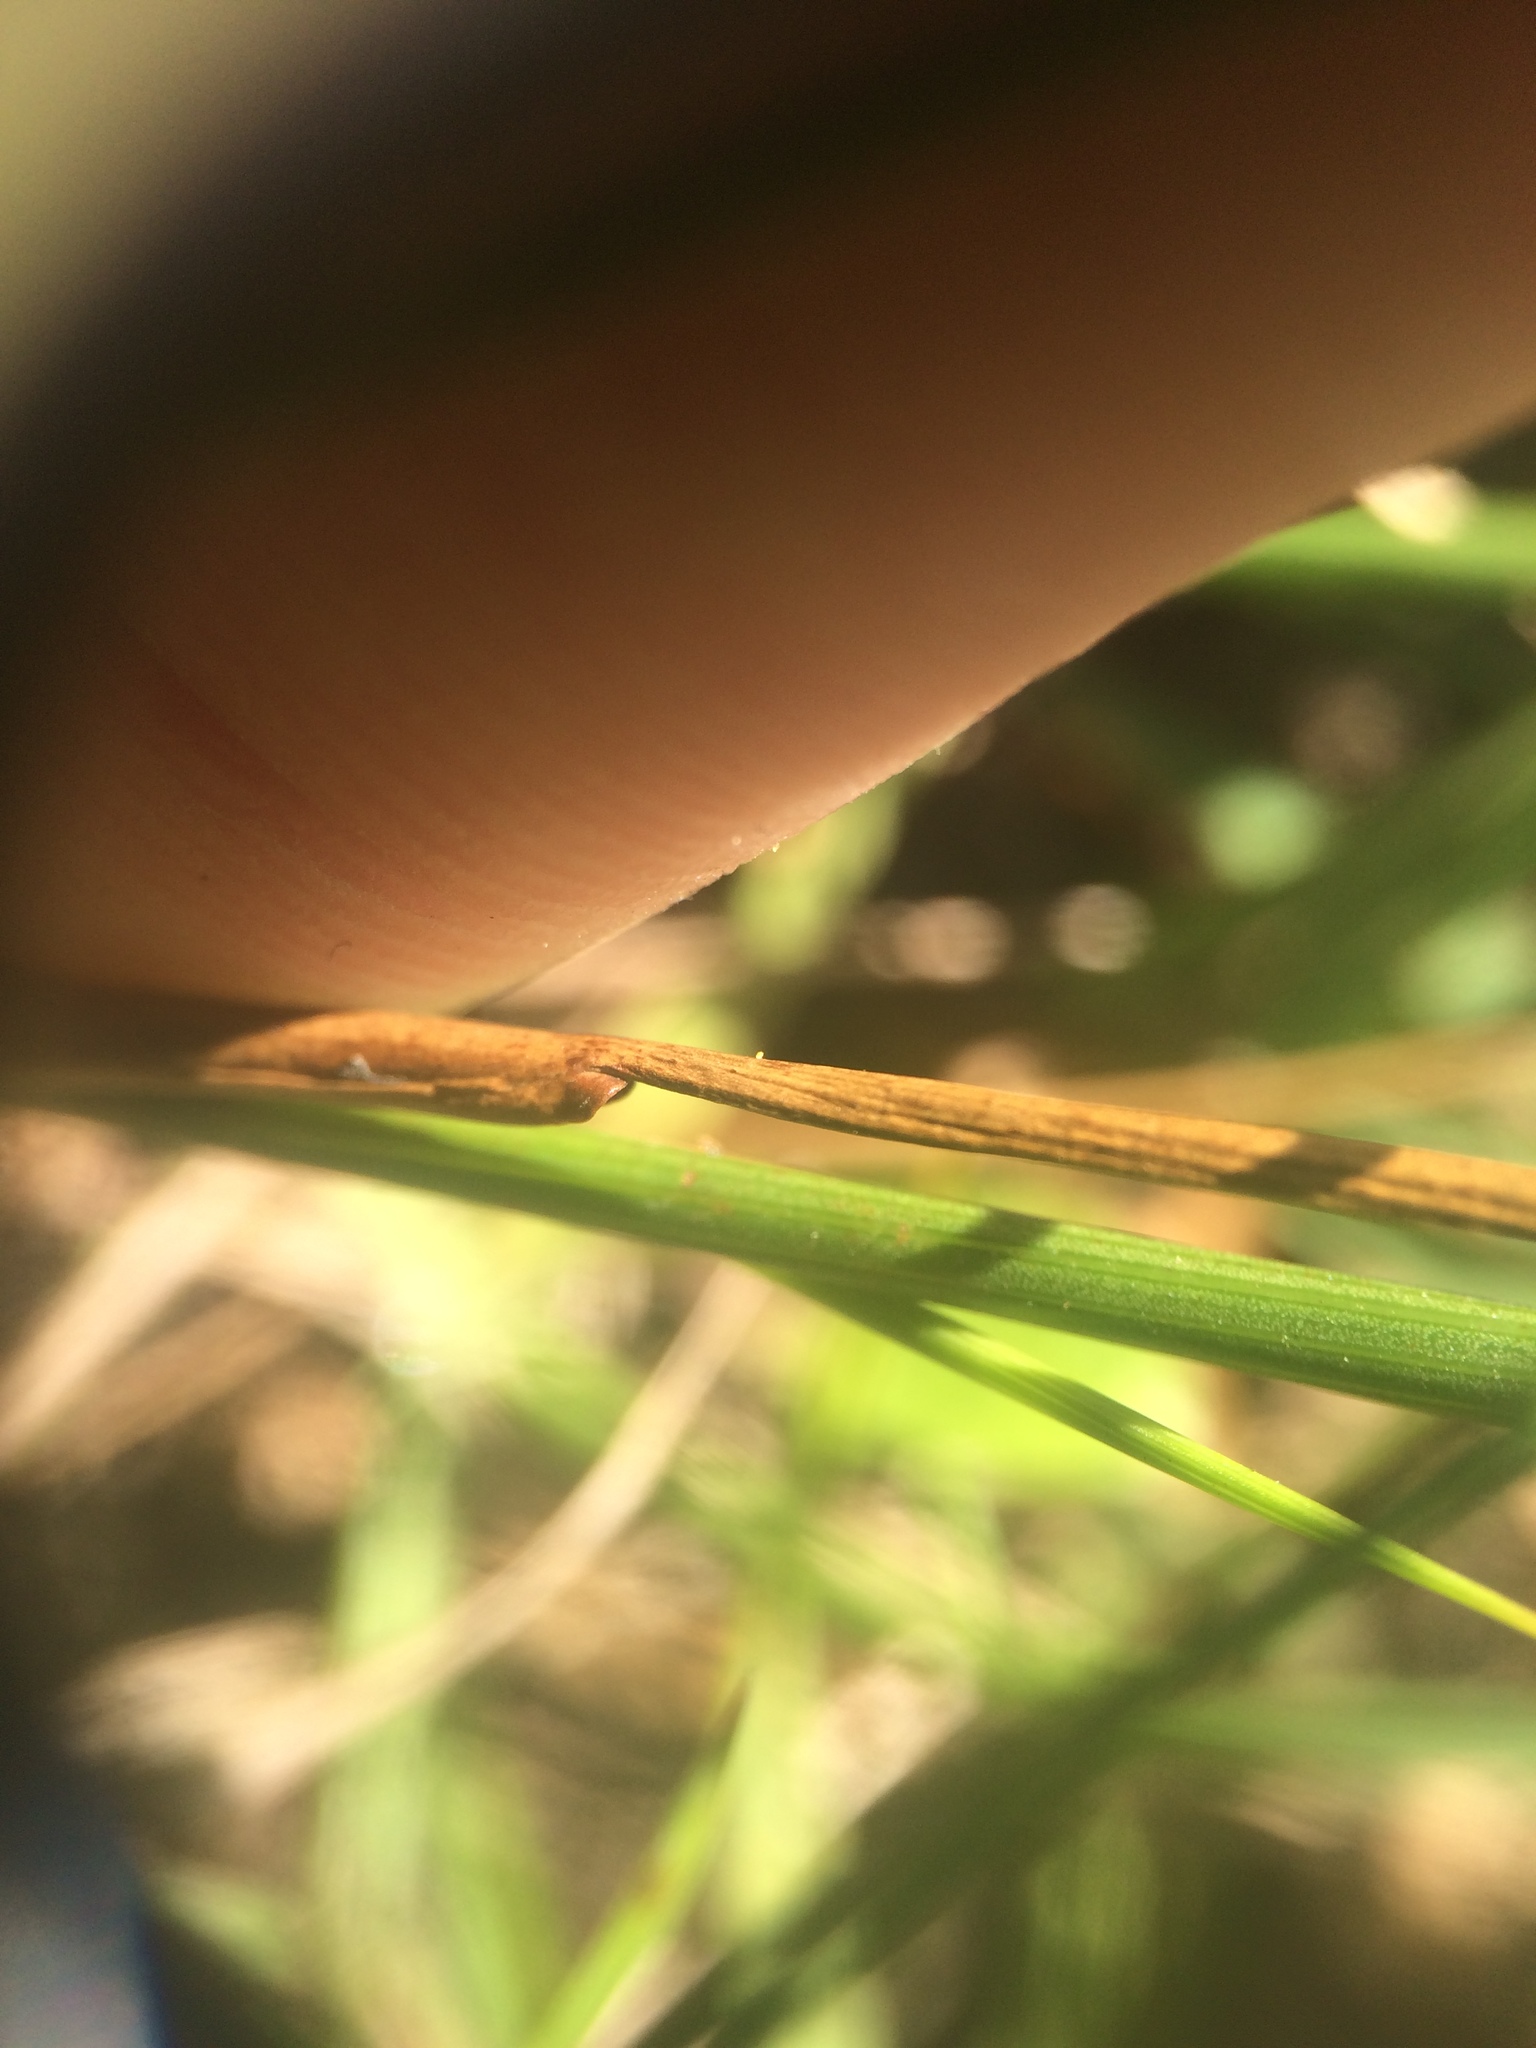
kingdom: Plantae
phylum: Tracheophyta
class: Liliopsida
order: Poales
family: Juncaceae
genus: Juncus
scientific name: Juncus dudleyi
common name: Dudley's rush
